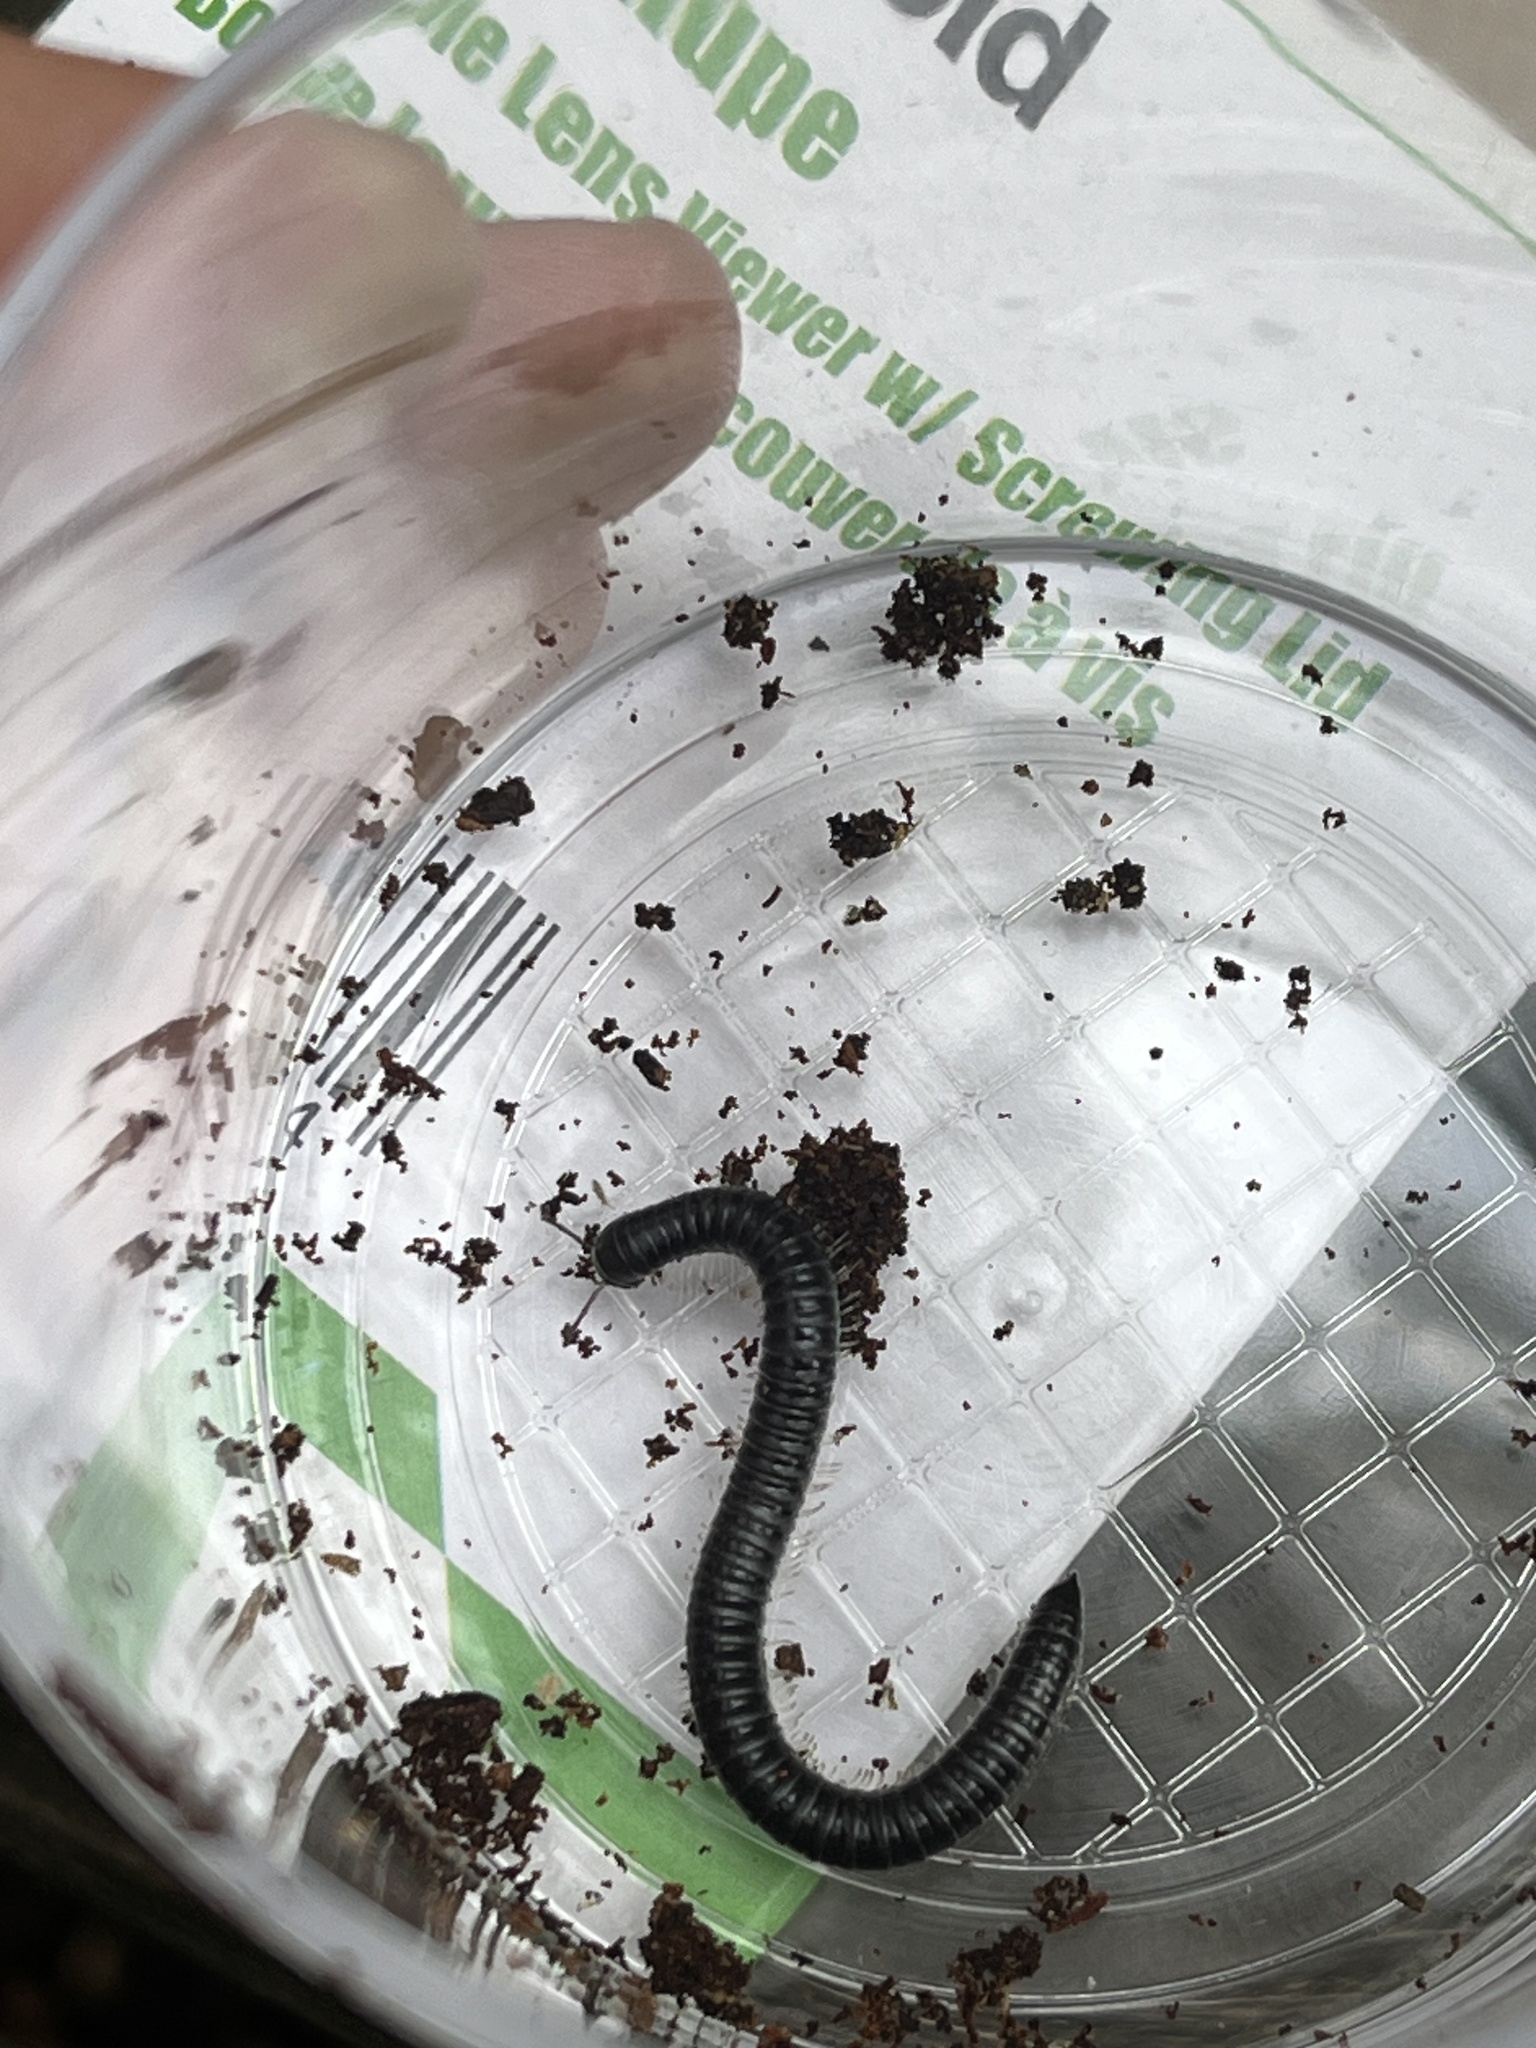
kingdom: Animalia
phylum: Arthropoda
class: Diplopoda
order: Julida
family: Julidae
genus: Tachypodoiulus
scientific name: Tachypodoiulus niger
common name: White-legged snake millipede
